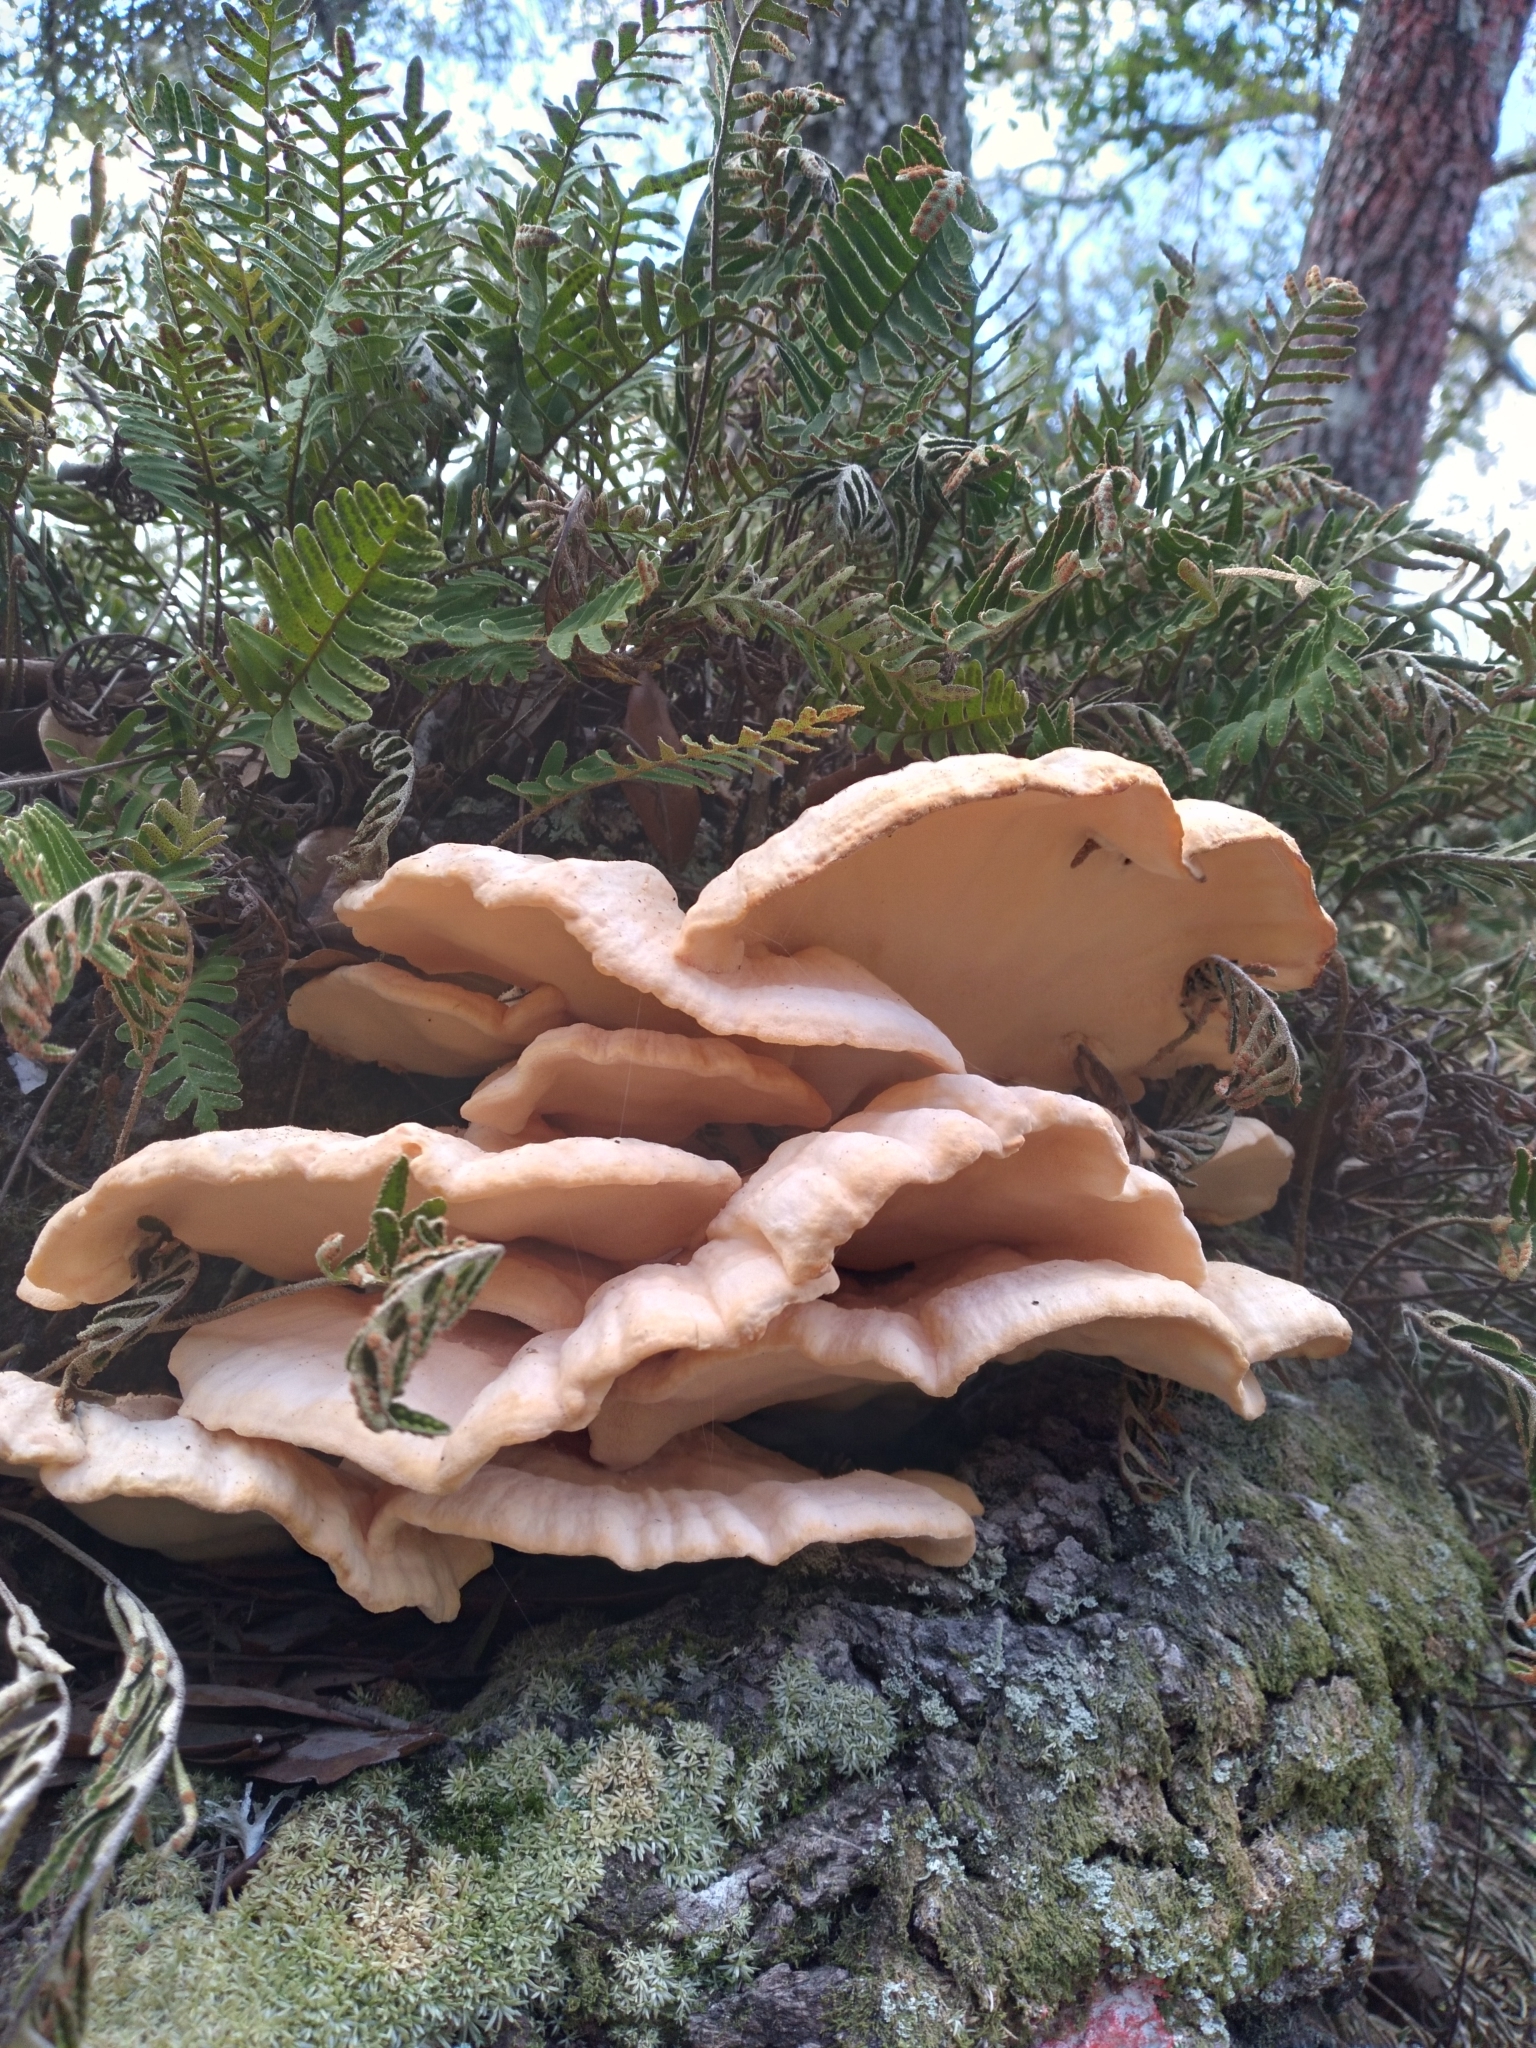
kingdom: Fungi
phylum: Basidiomycota
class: Agaricomycetes
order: Polyporales
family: Laetiporaceae
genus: Laetiporus
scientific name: Laetiporus gilbertsonii
